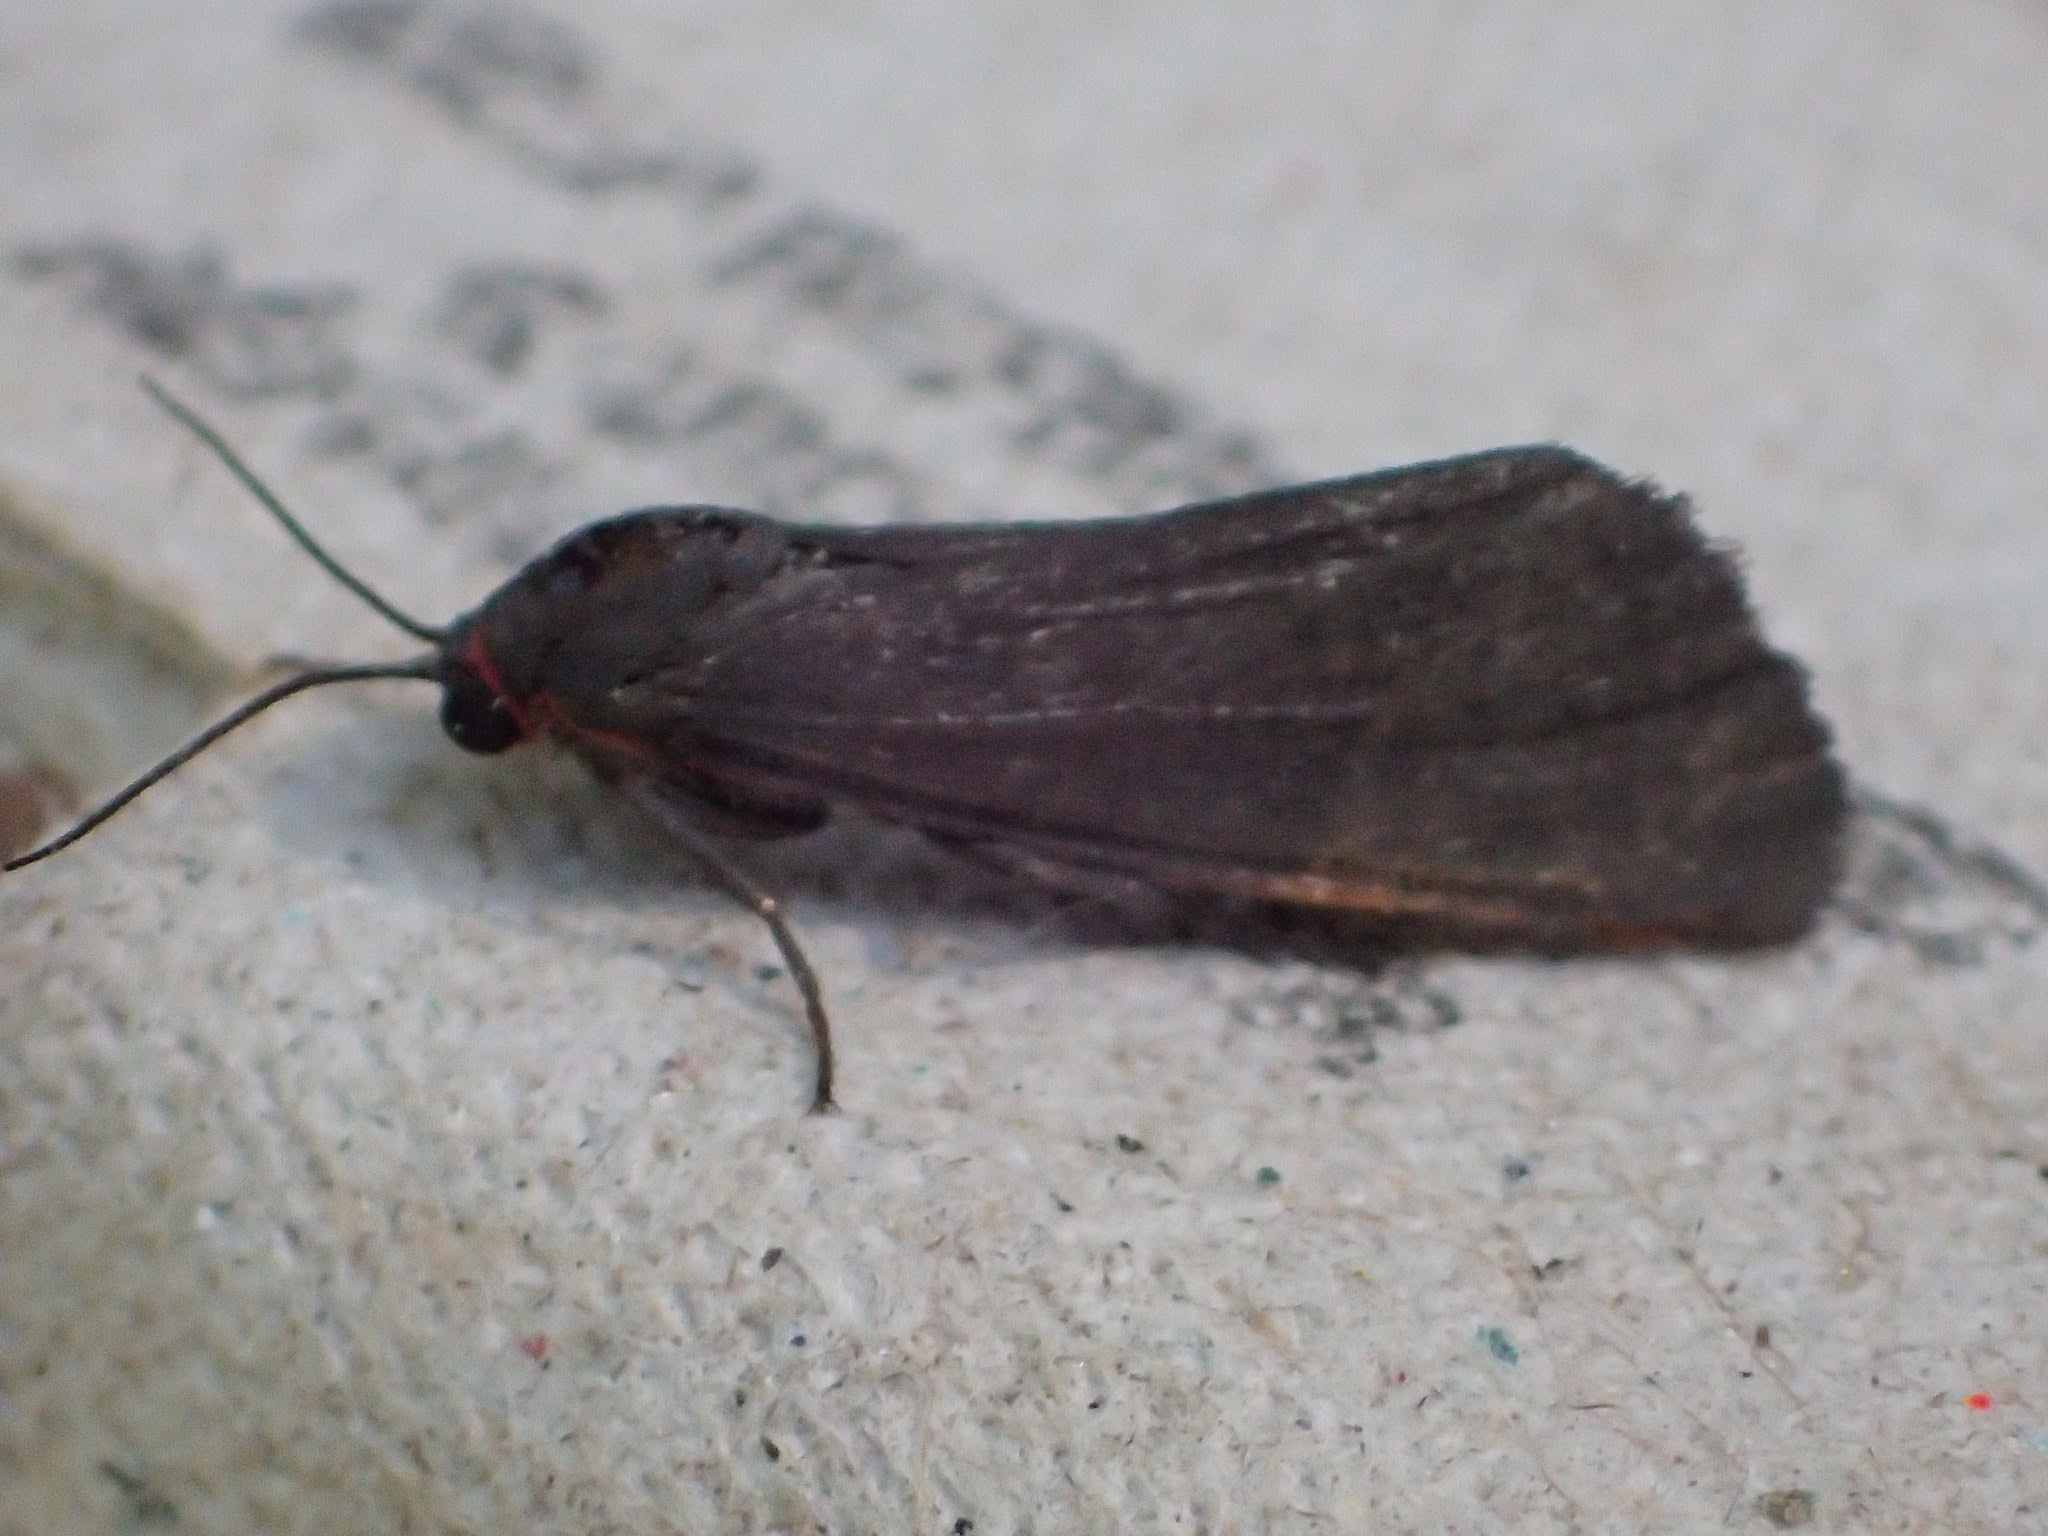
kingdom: Animalia
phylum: Arthropoda
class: Insecta
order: Lepidoptera
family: Erebidae
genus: Virbia
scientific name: Virbia laeta
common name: Joyful holomelina moth
